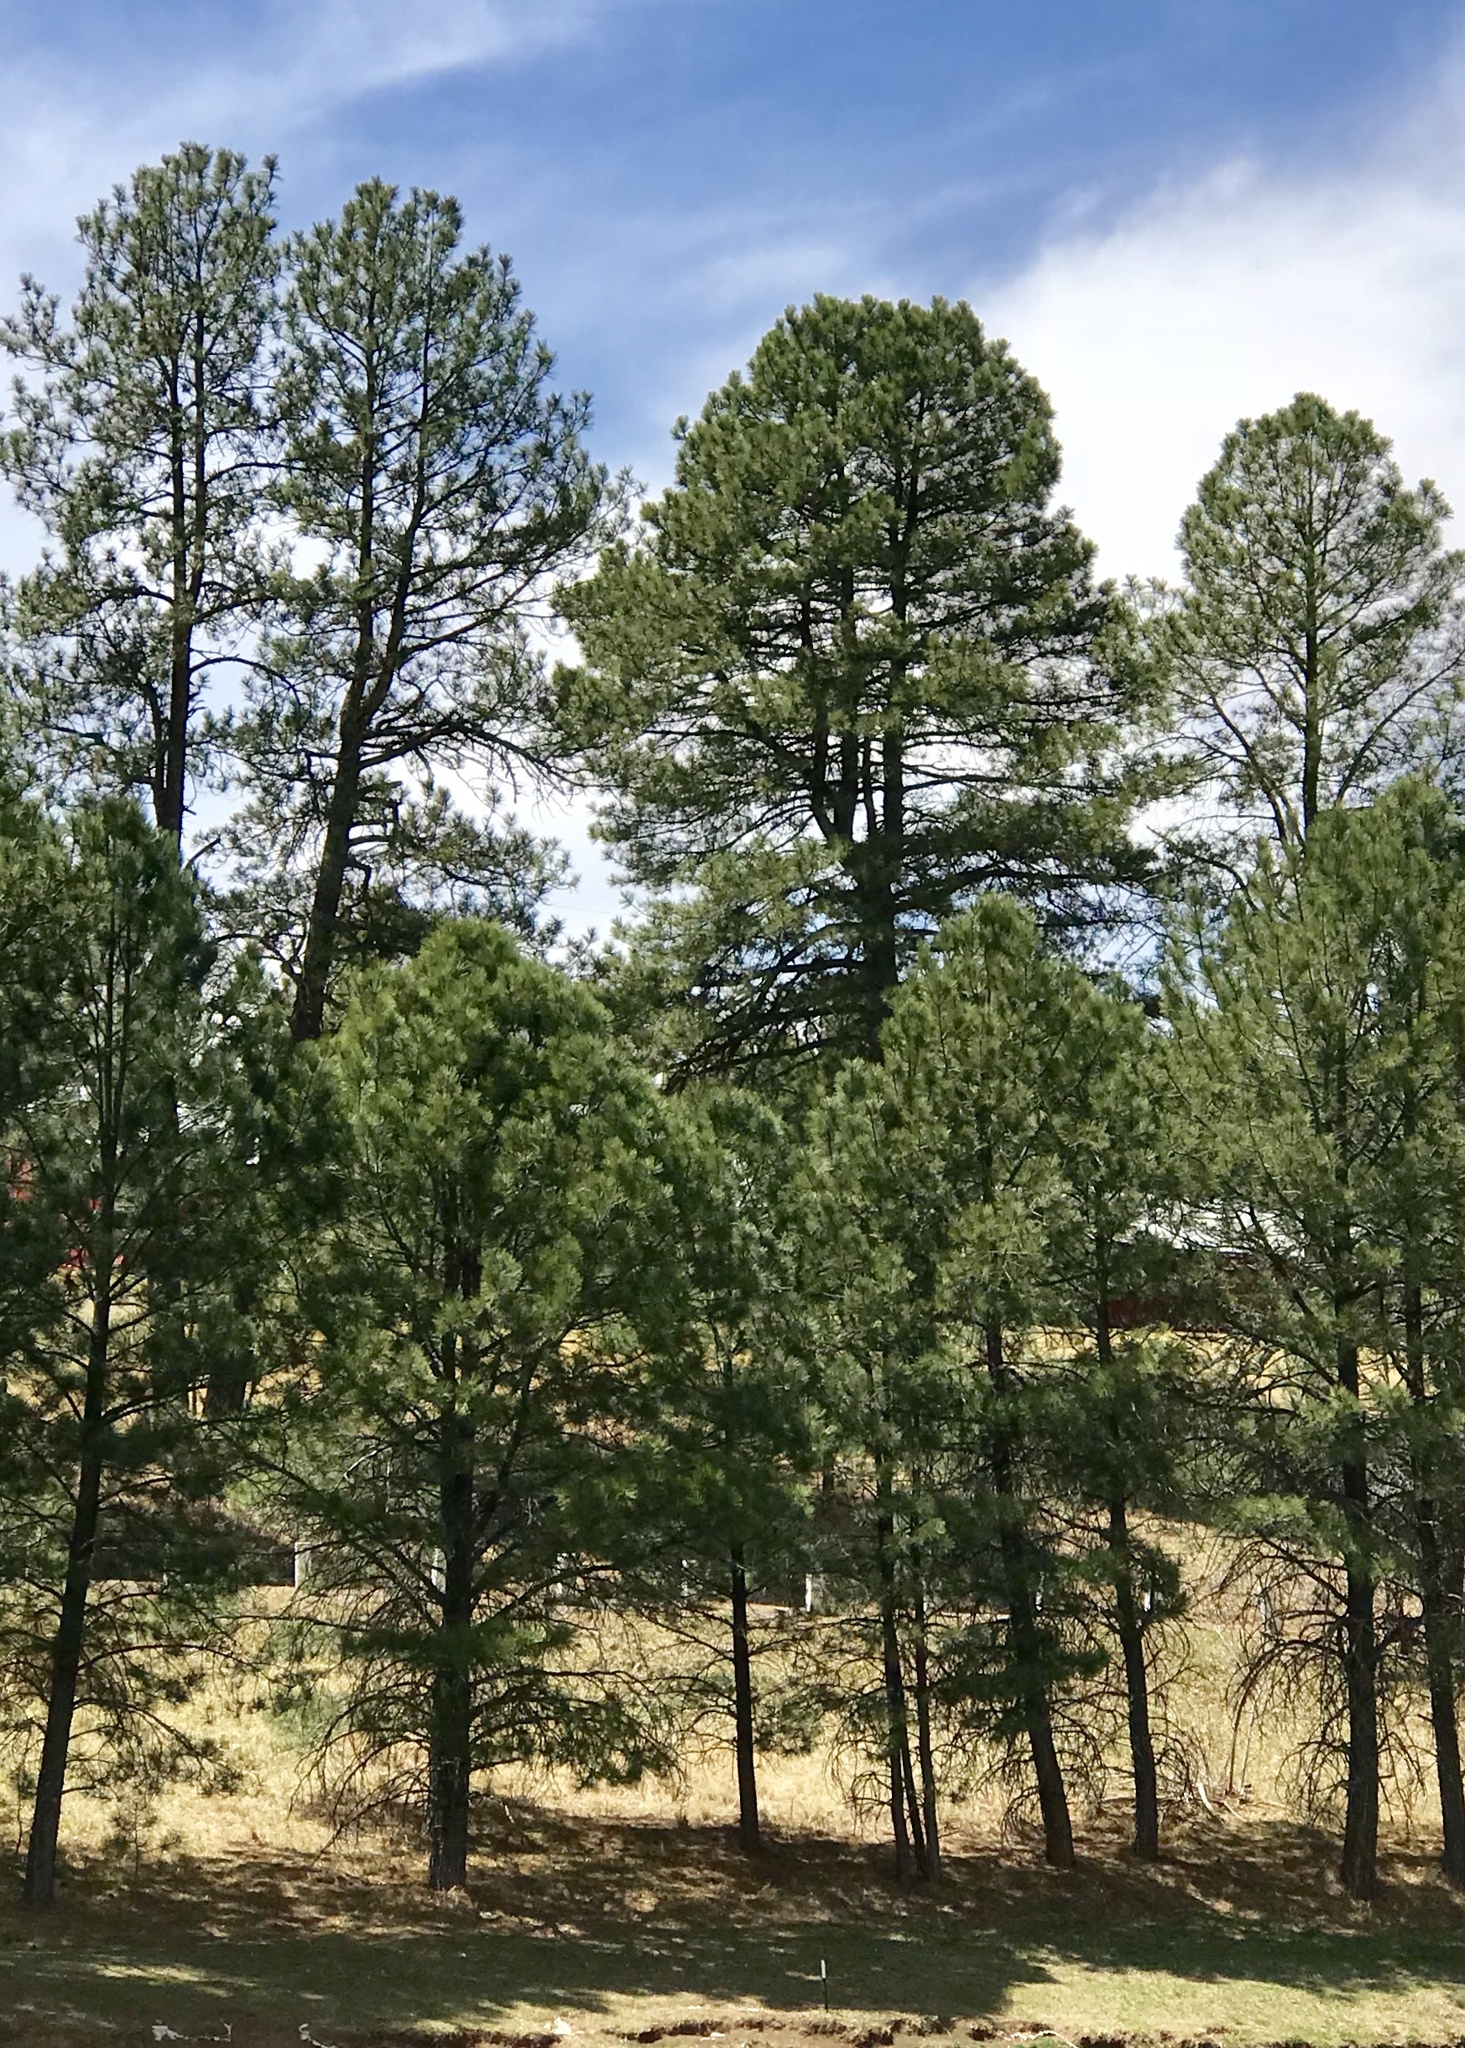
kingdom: Plantae
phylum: Tracheophyta
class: Pinopsida
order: Pinales
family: Pinaceae
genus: Pinus
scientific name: Pinus ponderosa
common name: Western yellow-pine
